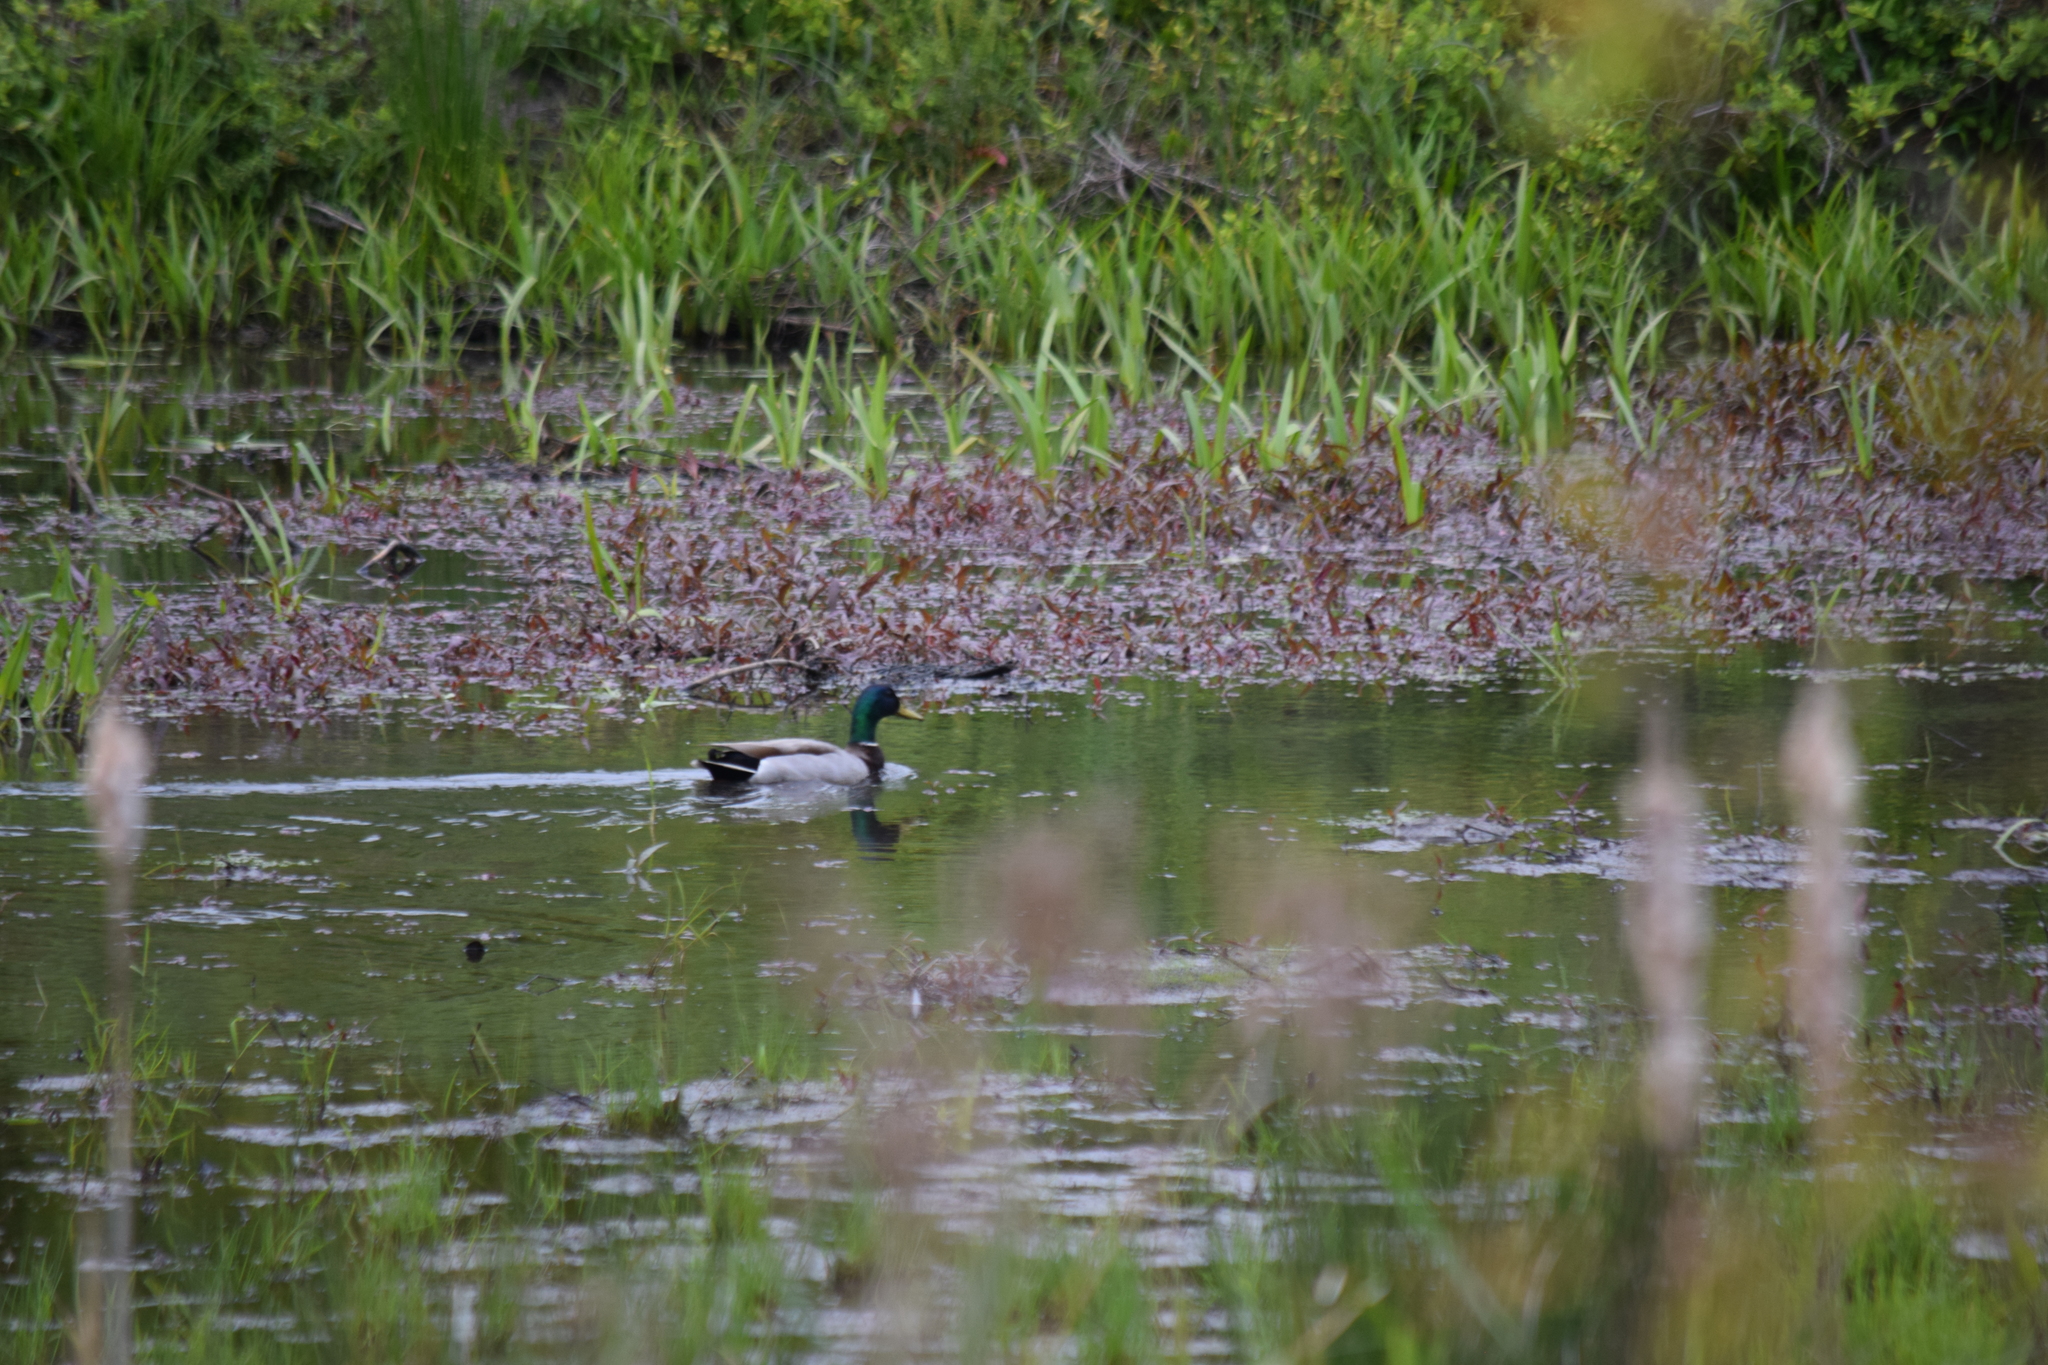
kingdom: Animalia
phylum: Chordata
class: Aves
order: Anseriformes
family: Anatidae
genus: Anas
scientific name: Anas platyrhynchos
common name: Mallard
